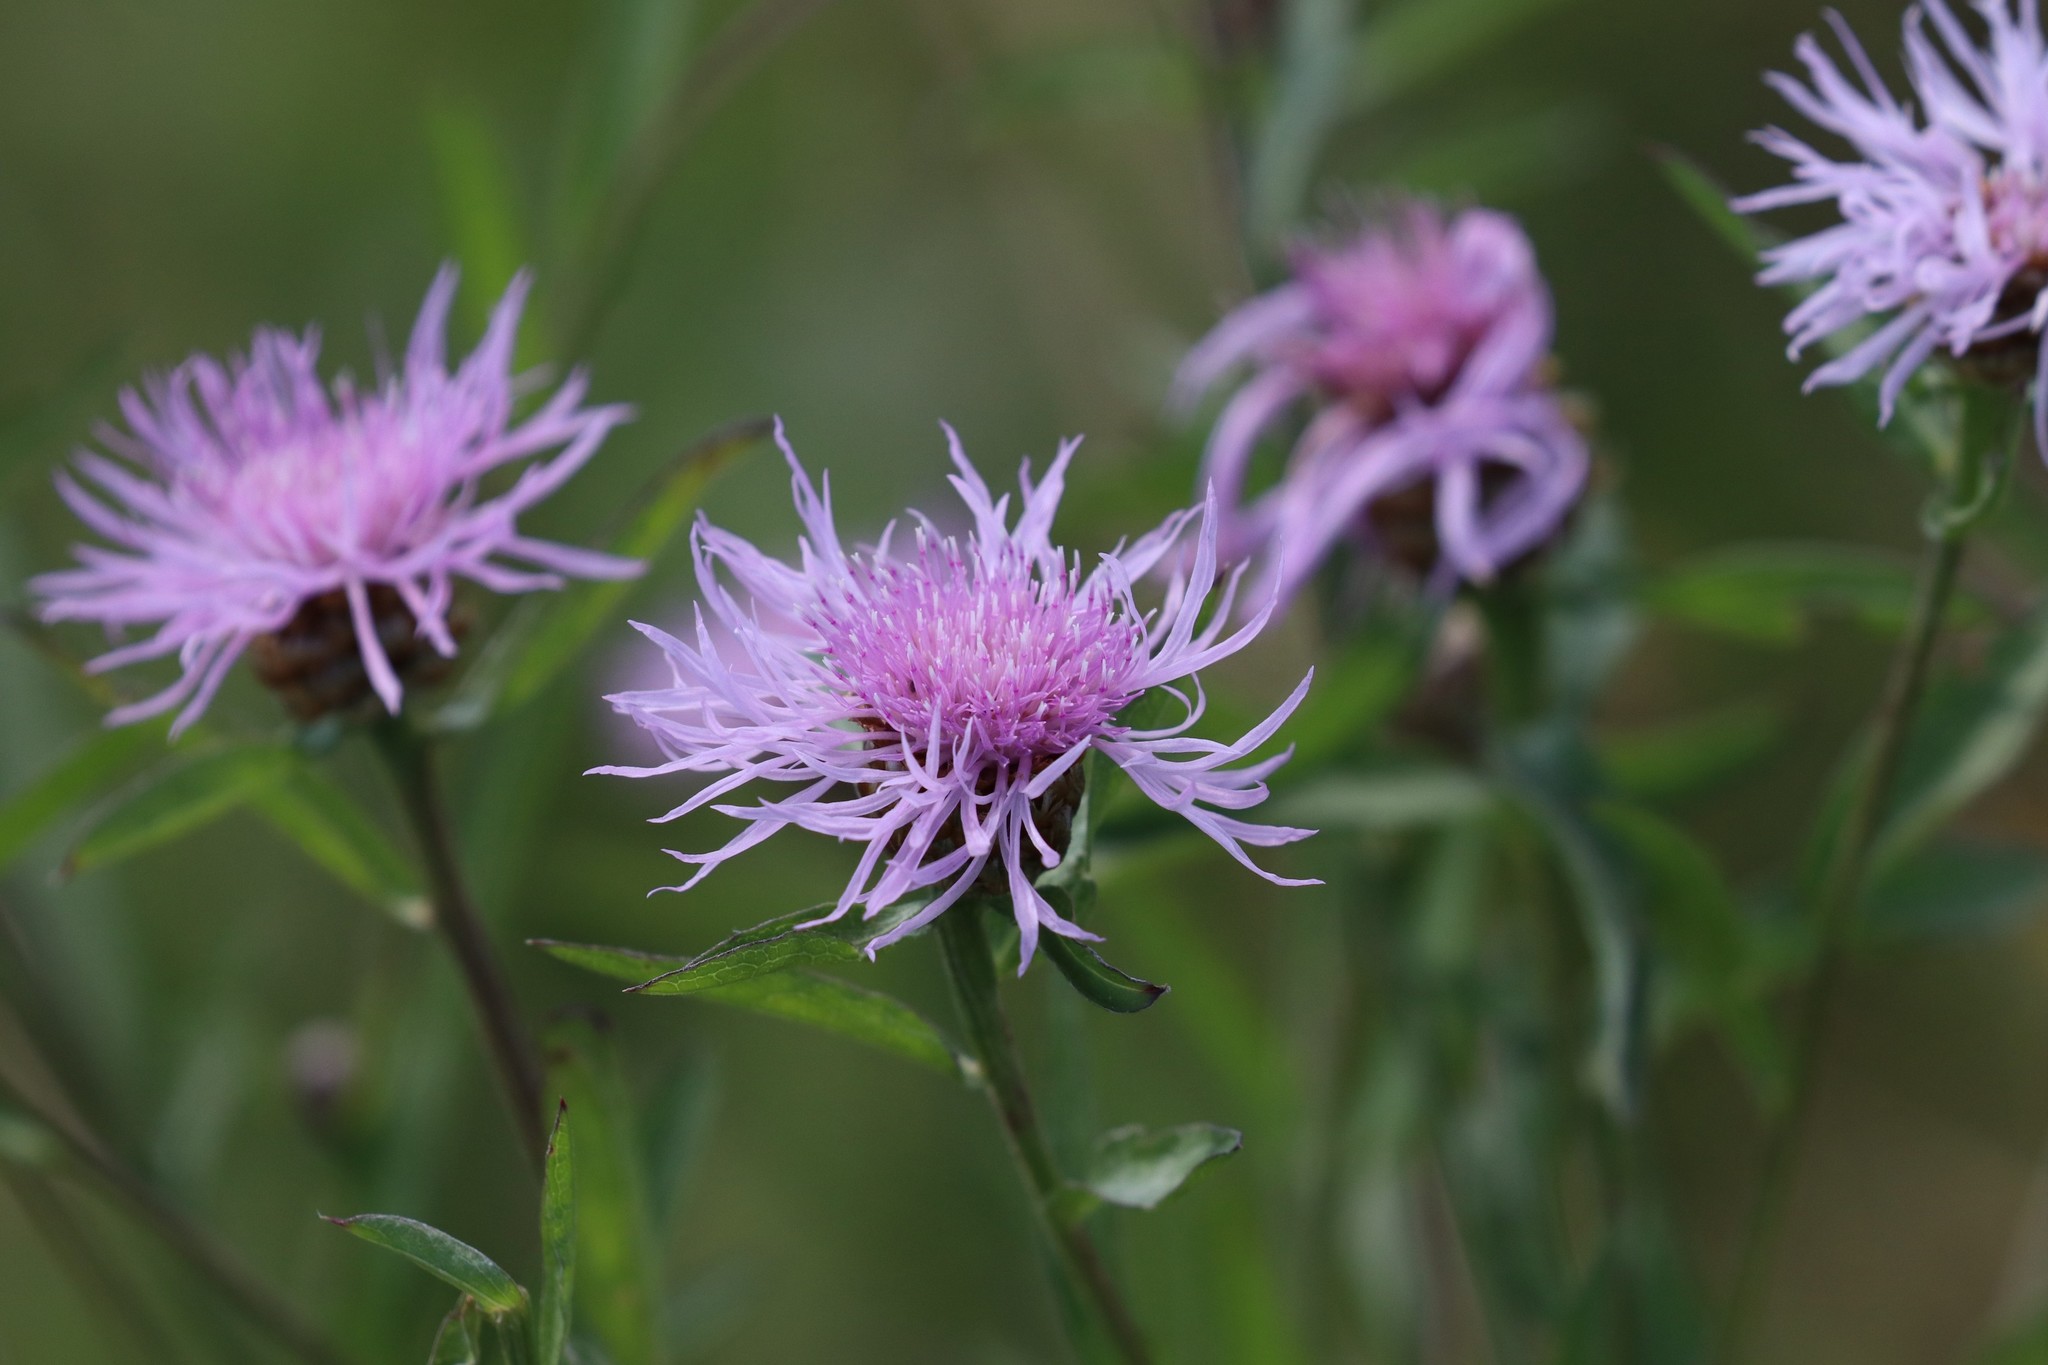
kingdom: Plantae
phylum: Tracheophyta
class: Magnoliopsida
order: Asterales
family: Asteraceae
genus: Centaurea
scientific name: Centaurea jacea
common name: Brown knapweed
